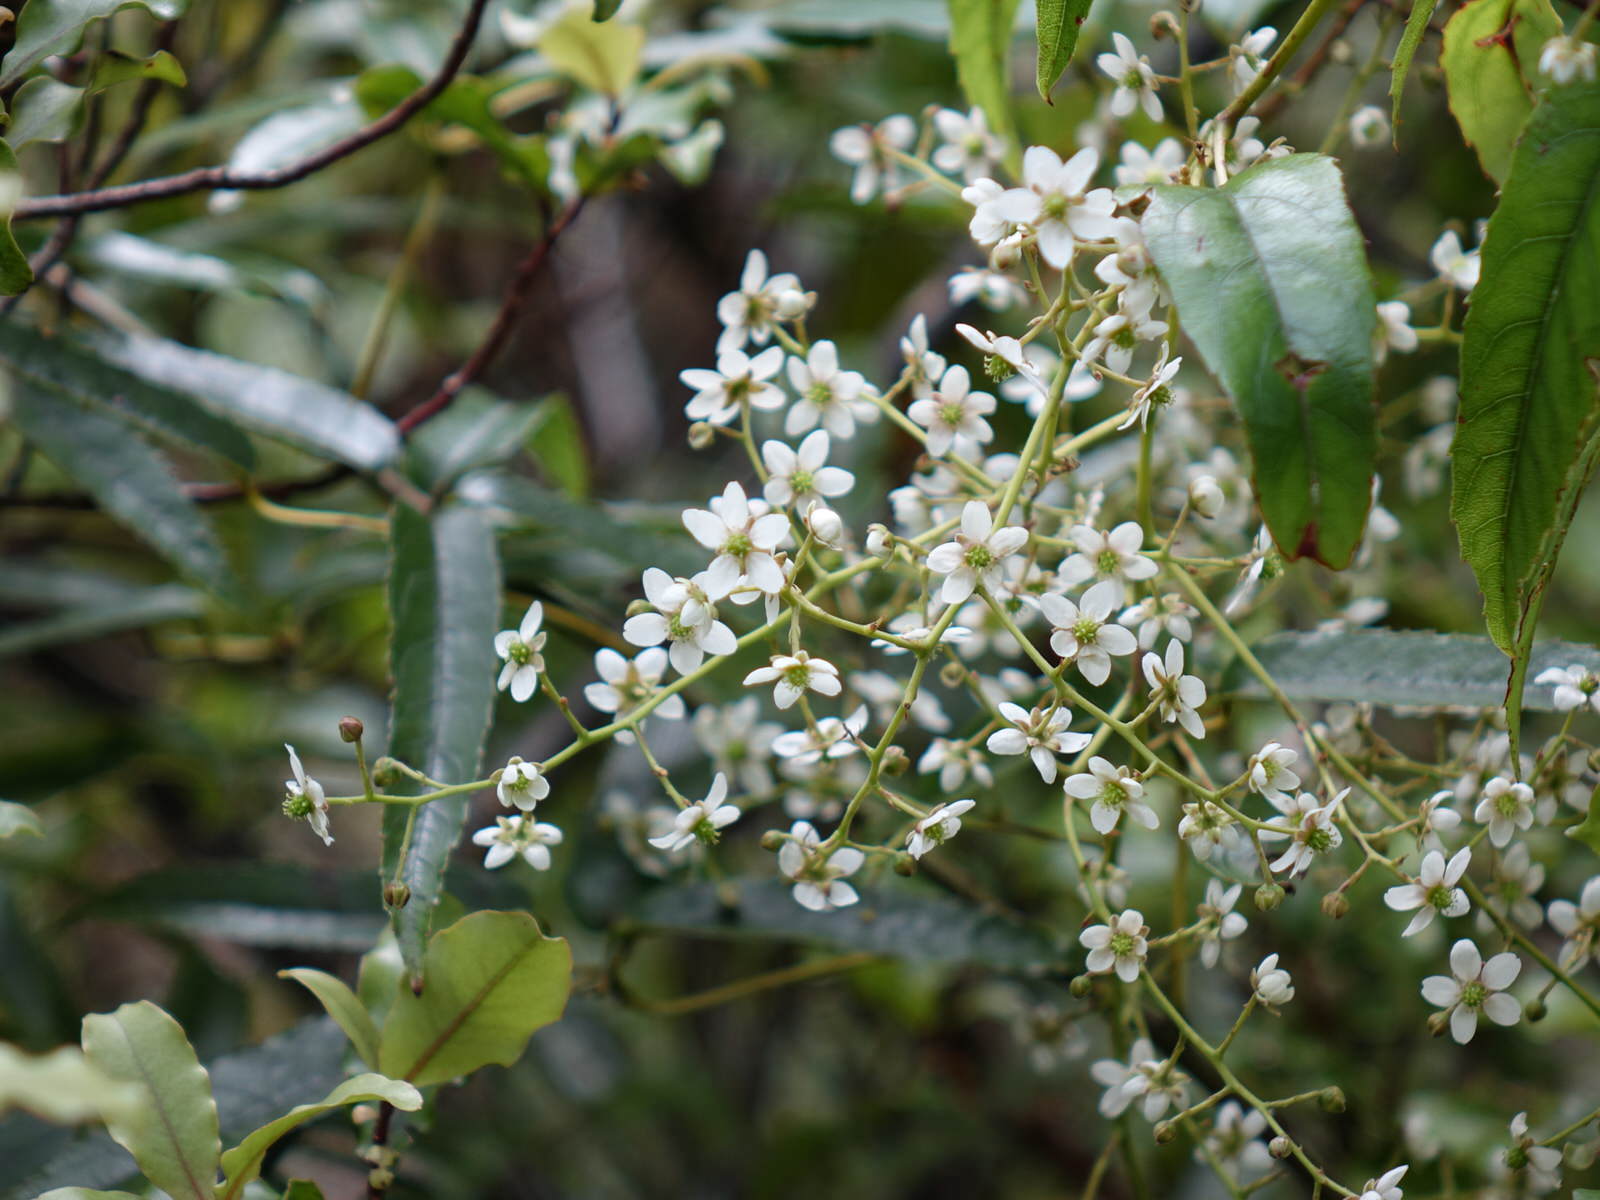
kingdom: Plantae
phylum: Tracheophyta
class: Magnoliopsida
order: Rosales
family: Rosaceae
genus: Rubus
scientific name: Rubus cissoides
